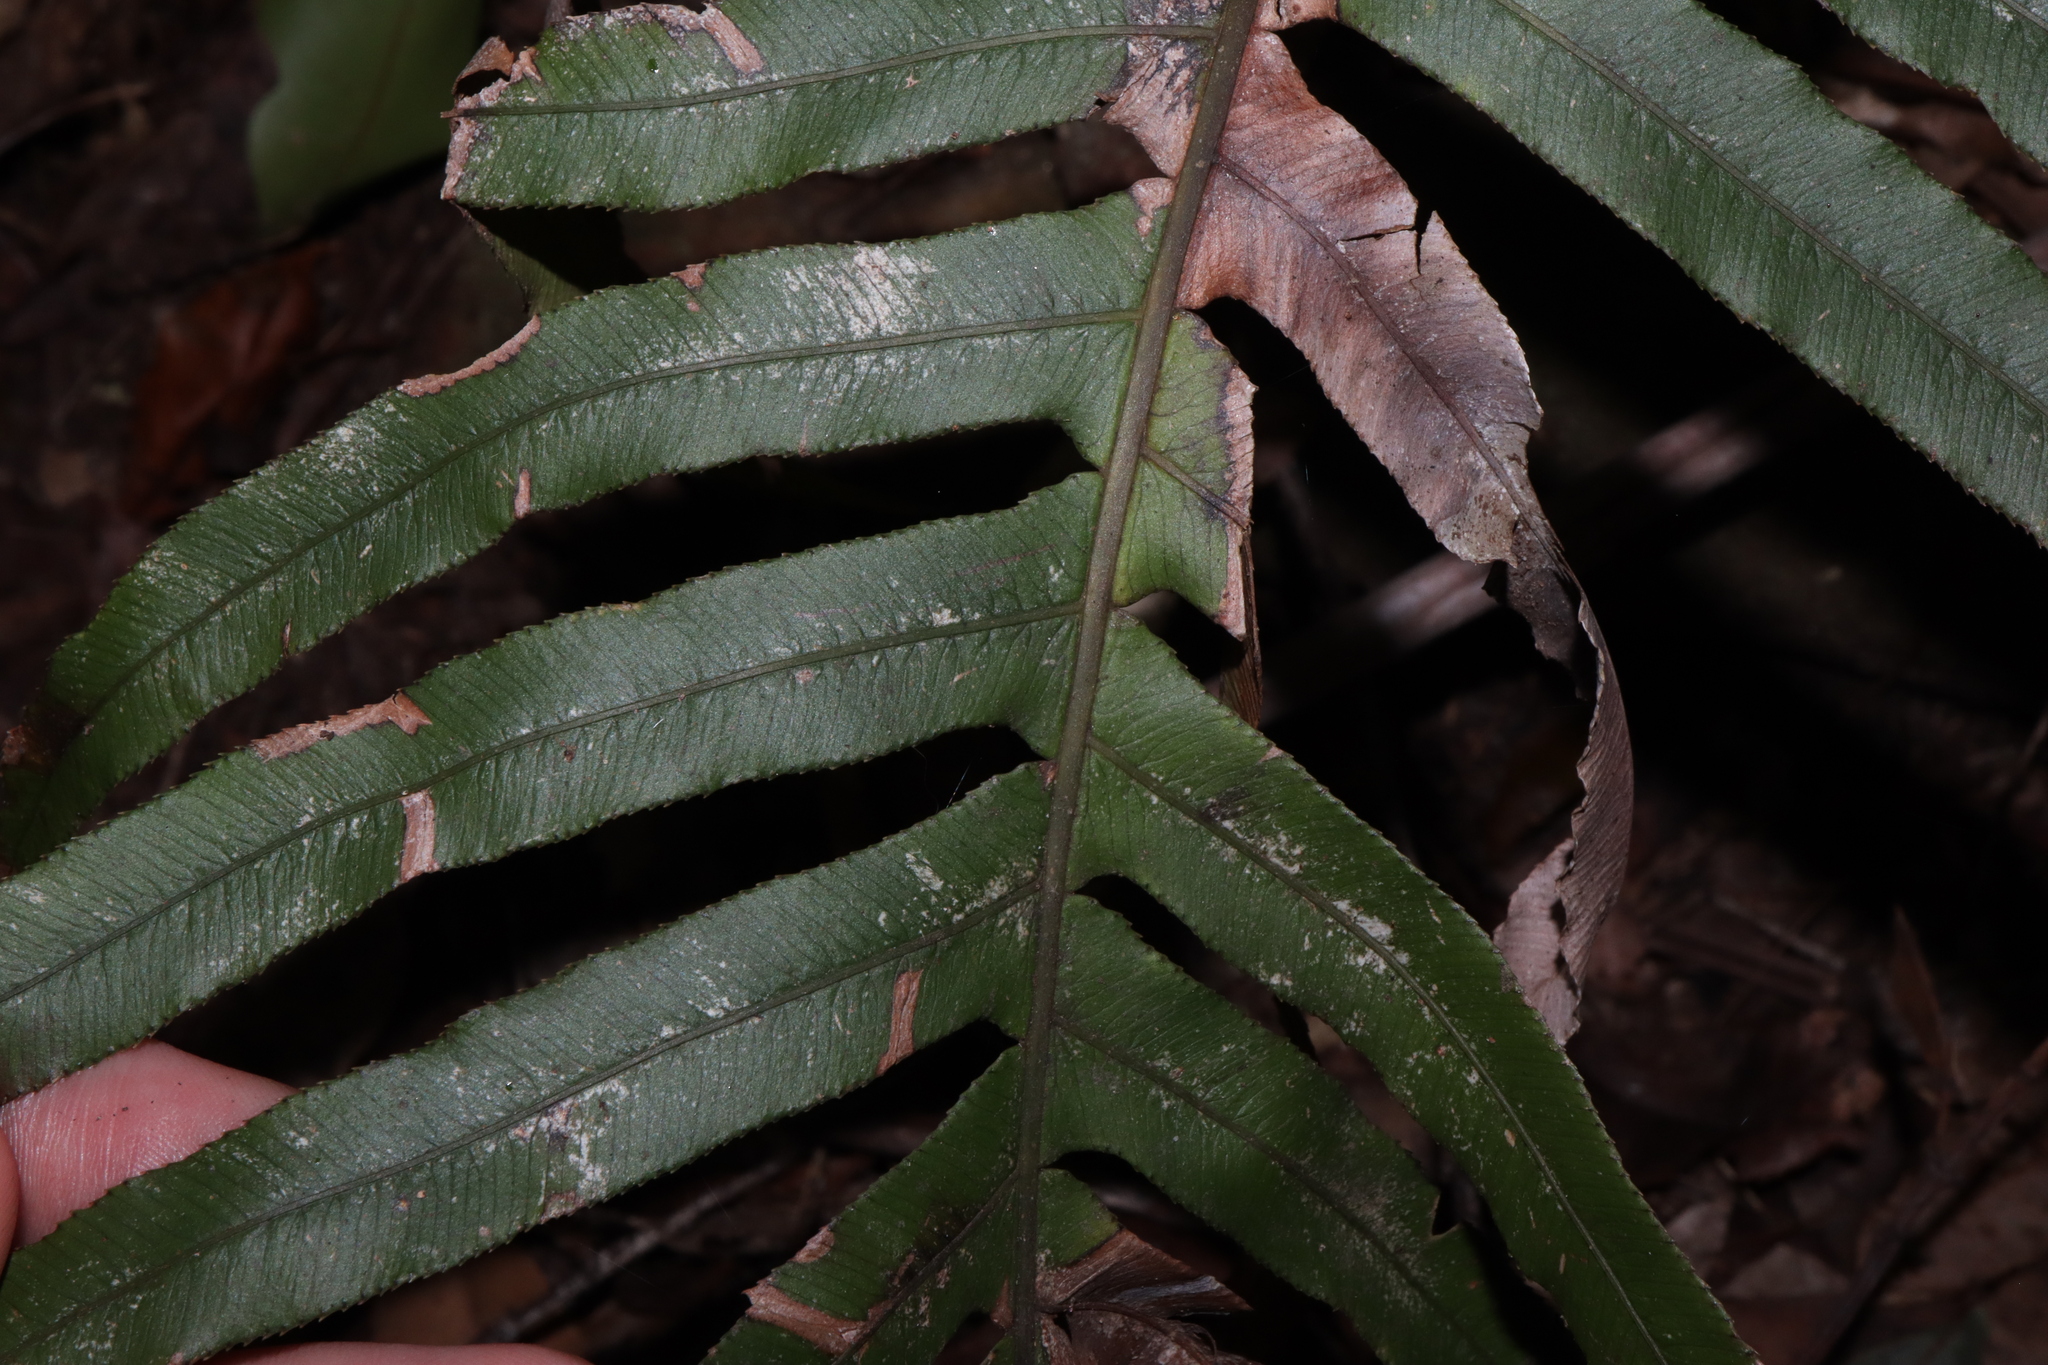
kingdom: Plantae
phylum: Tracheophyta
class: Polypodiopsida
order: Polypodiales
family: Blechnaceae
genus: Oceaniopteris
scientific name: Oceaniopteris cartilaginea
